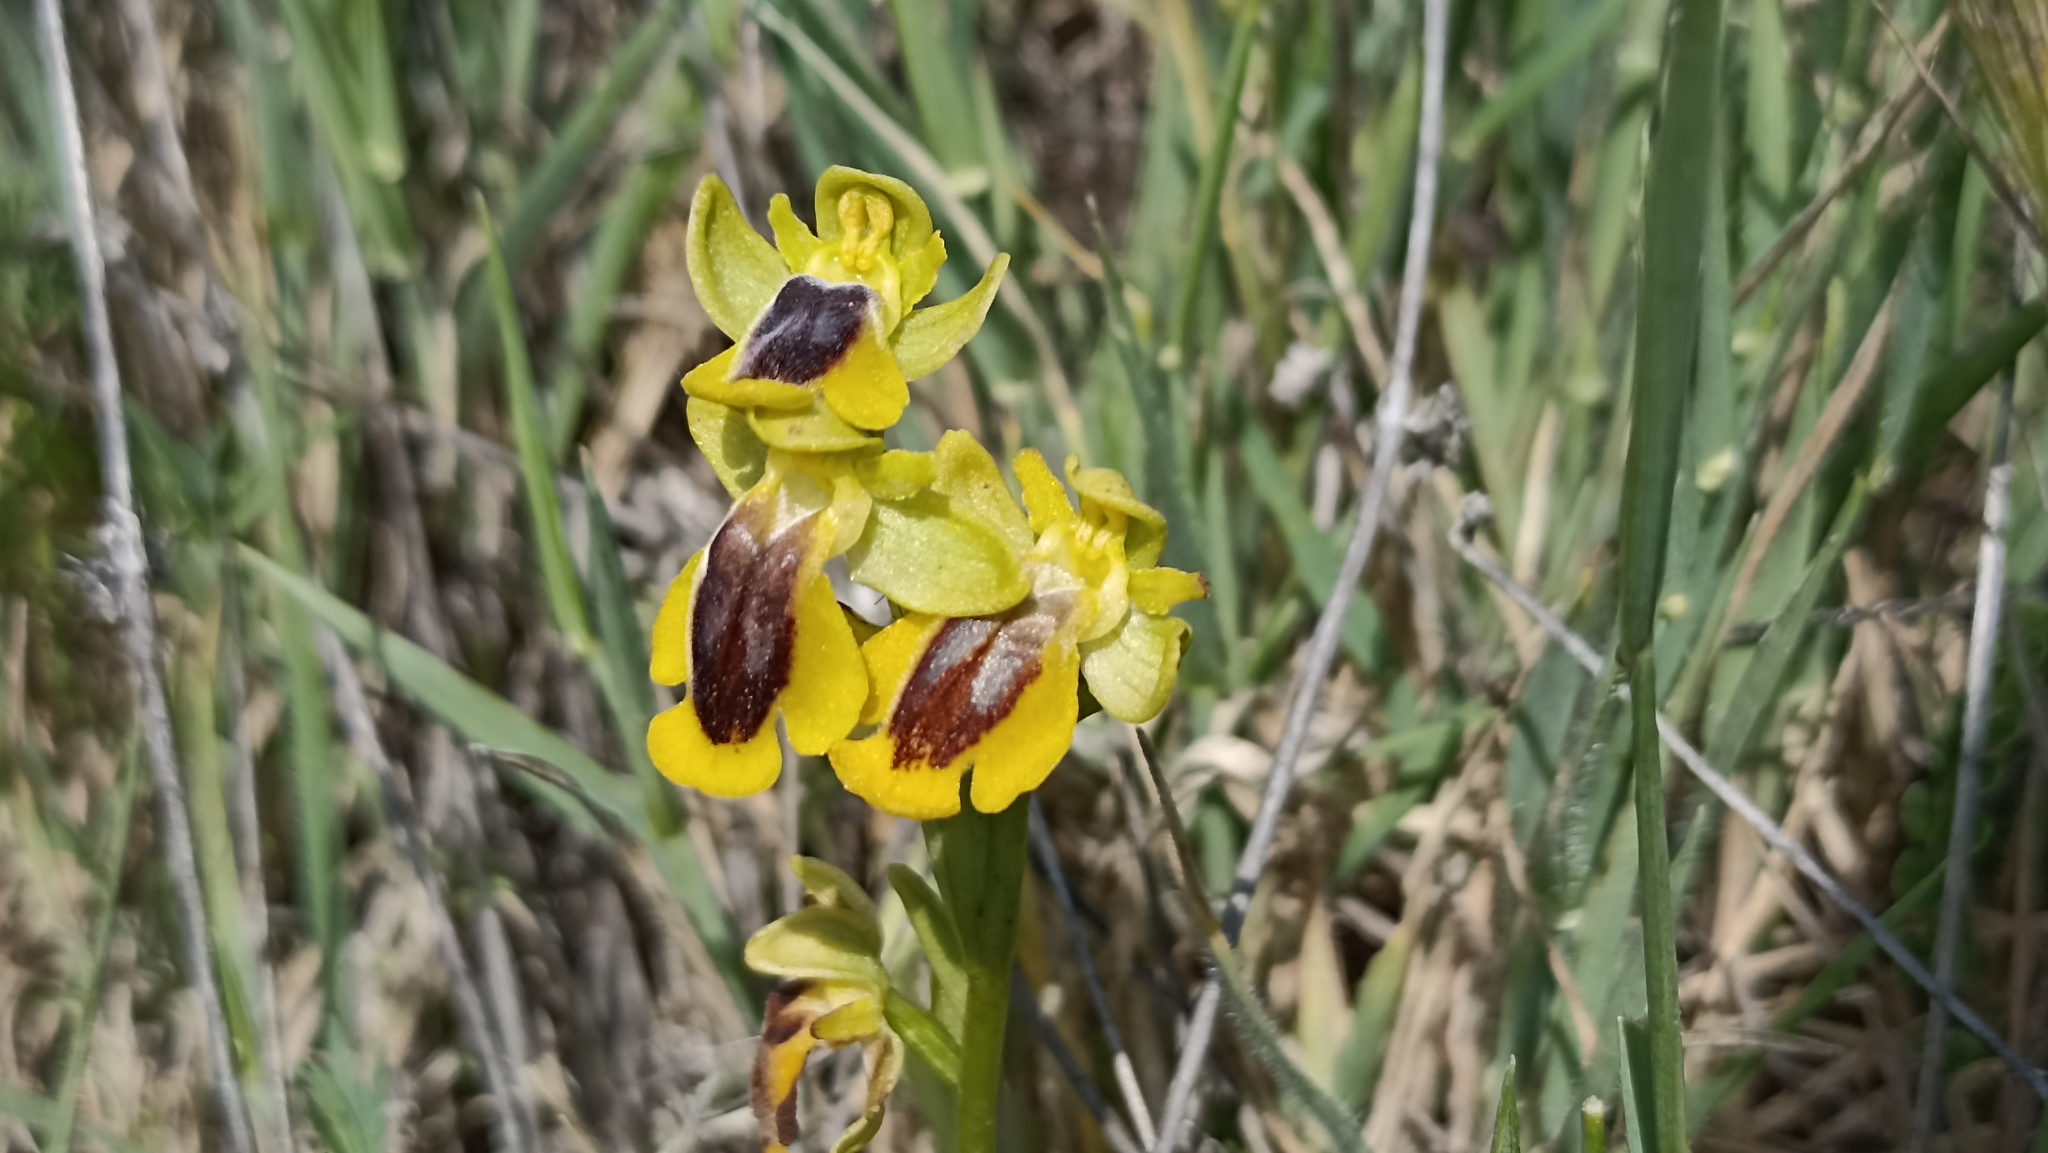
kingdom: Plantae
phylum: Tracheophyta
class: Liliopsida
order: Asparagales
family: Orchidaceae
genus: Ophrys
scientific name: Ophrys lutea
